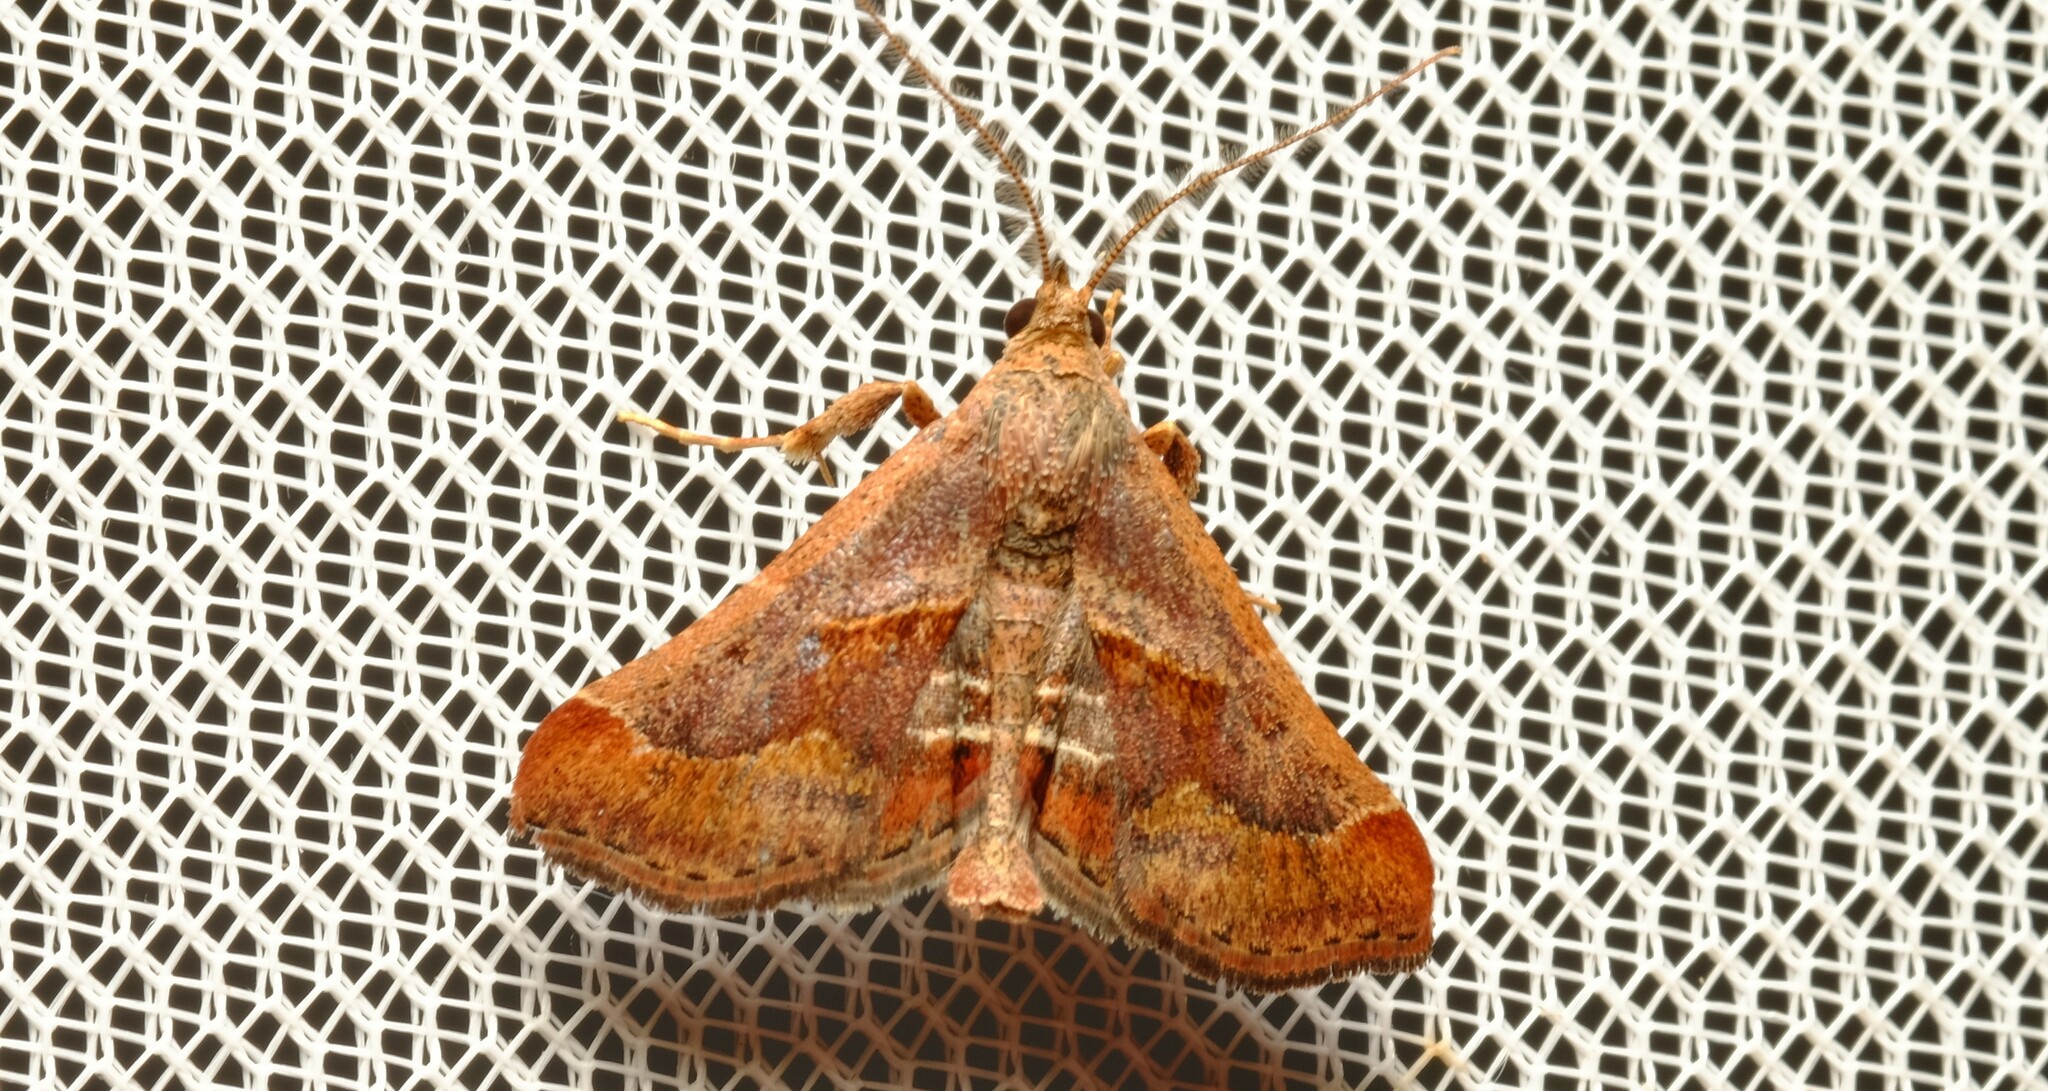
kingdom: Animalia
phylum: Arthropoda
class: Insecta
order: Lepidoptera
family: Pyralidae
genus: Gauna
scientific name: Gauna aegusalis
